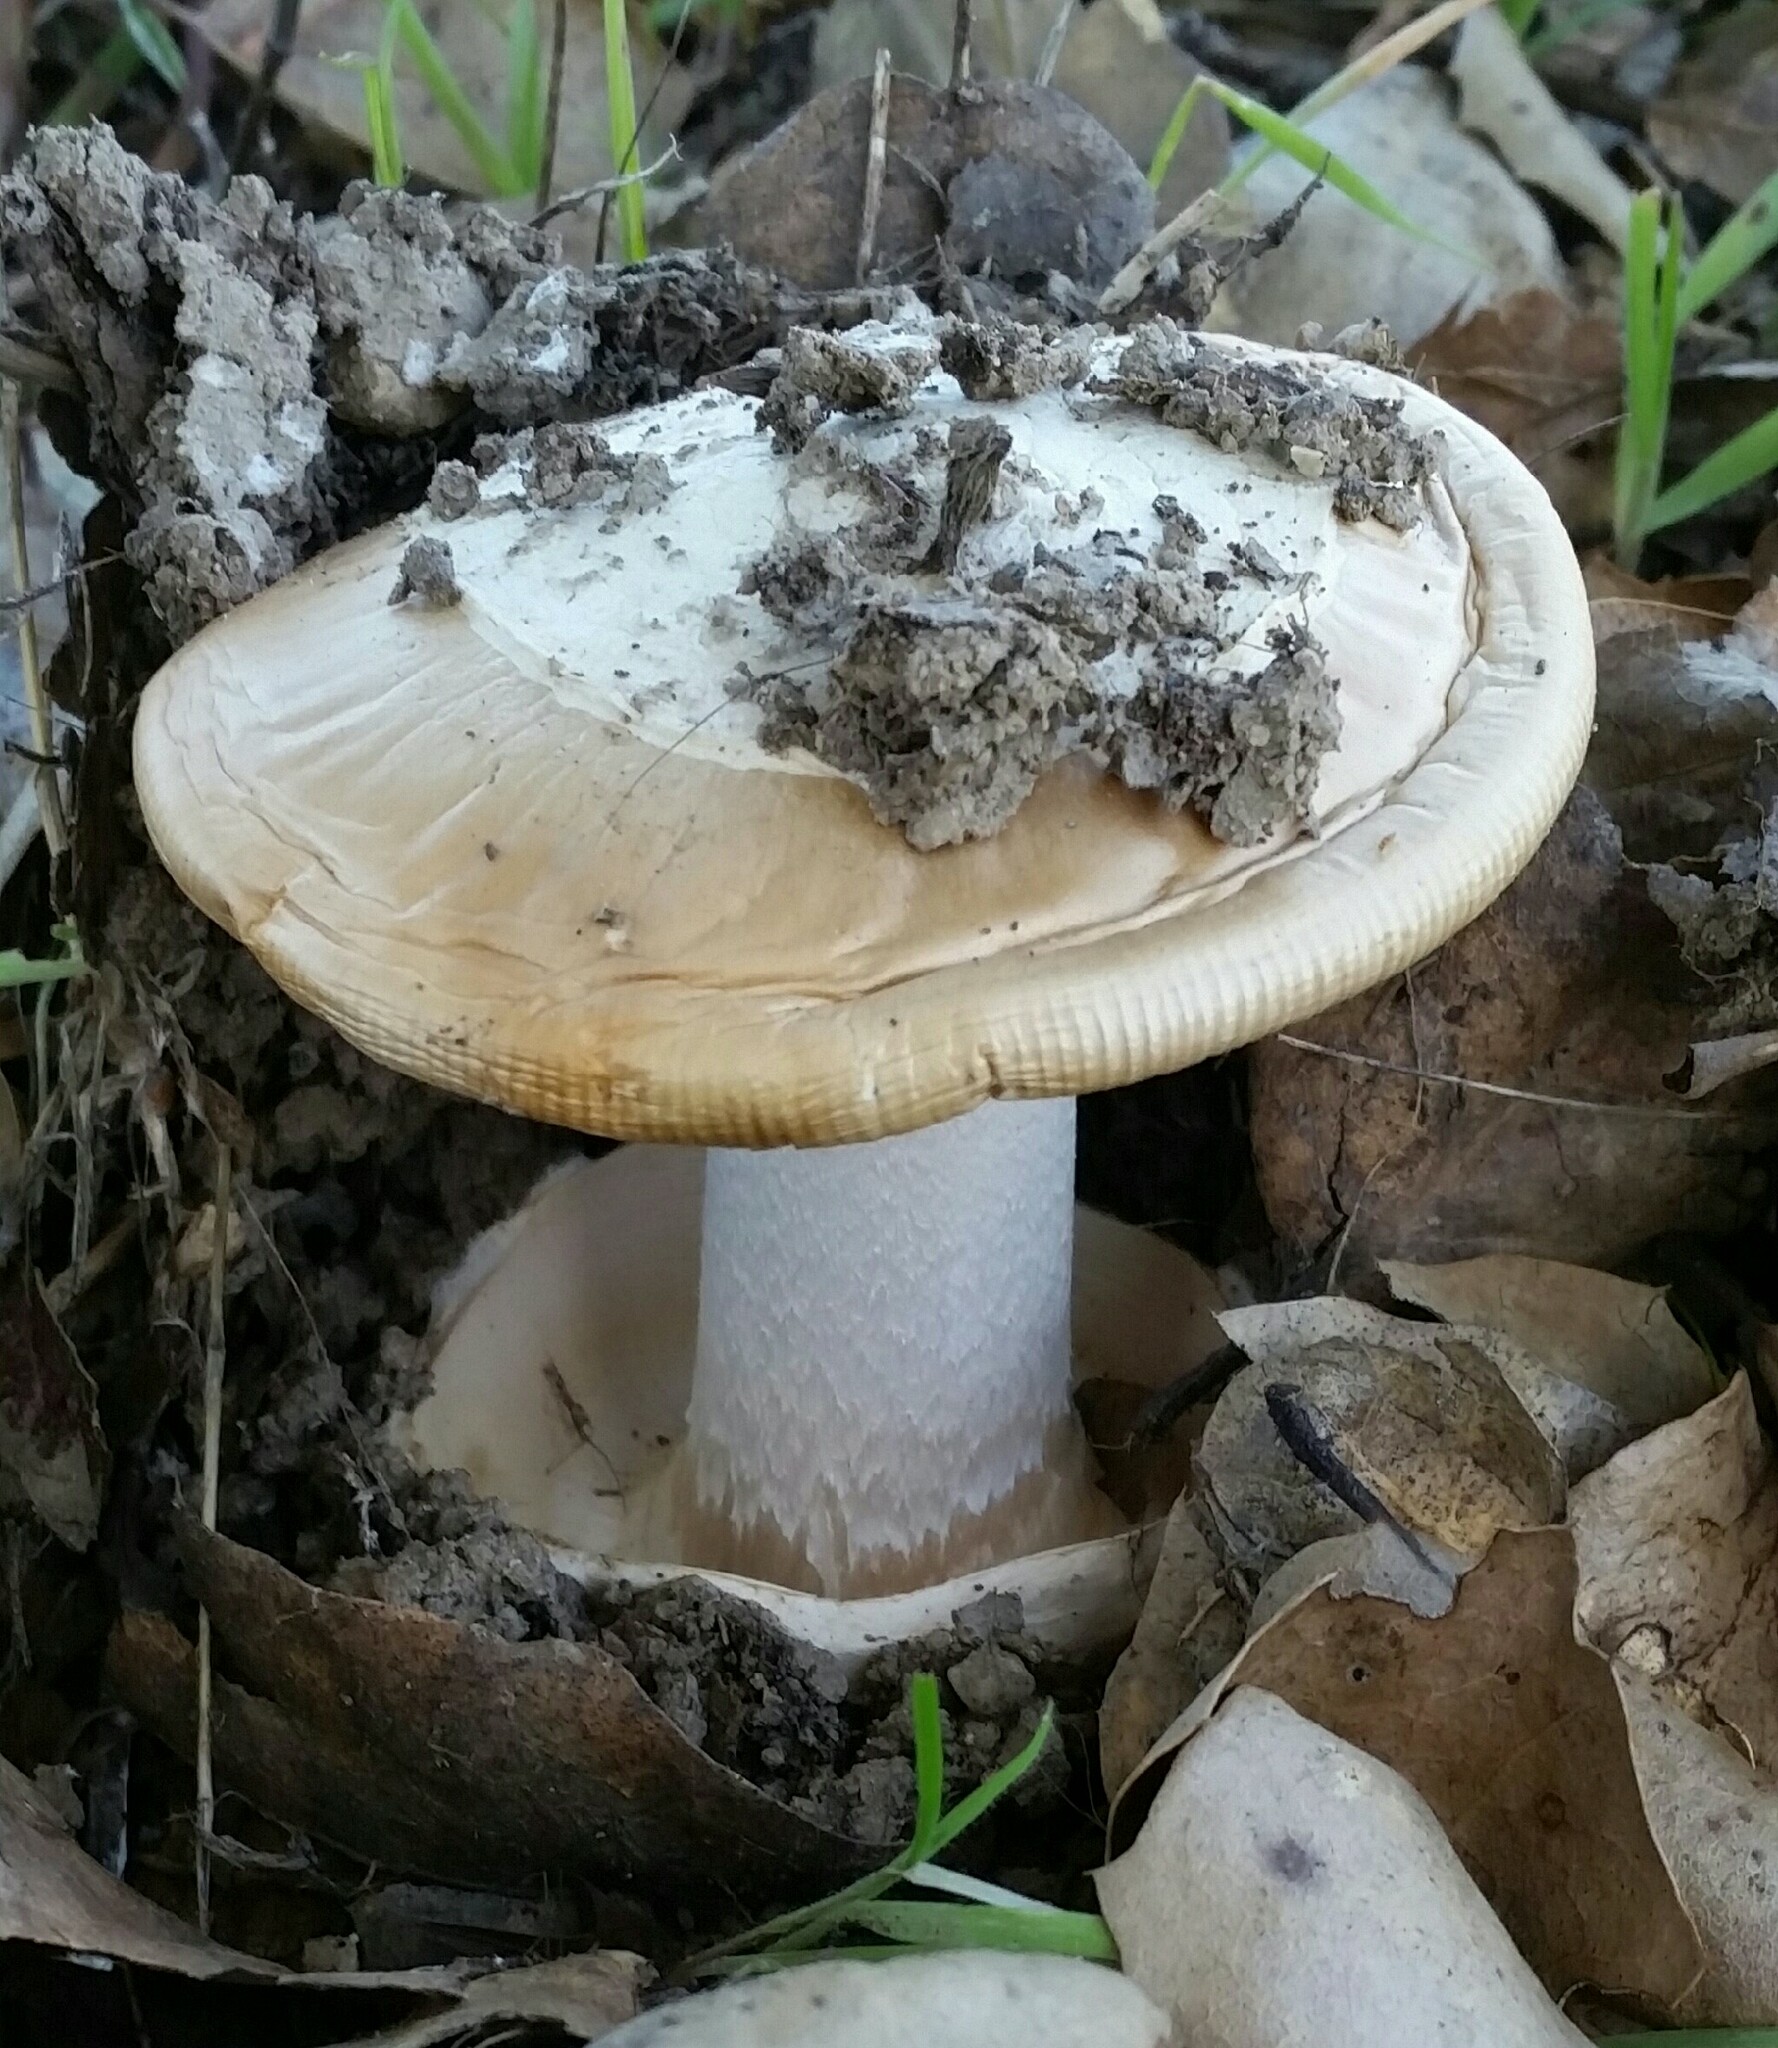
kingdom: Fungi
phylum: Basidiomycota
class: Agaricomycetes
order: Agaricales
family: Amanitaceae
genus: Amanita
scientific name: Amanita velosa
